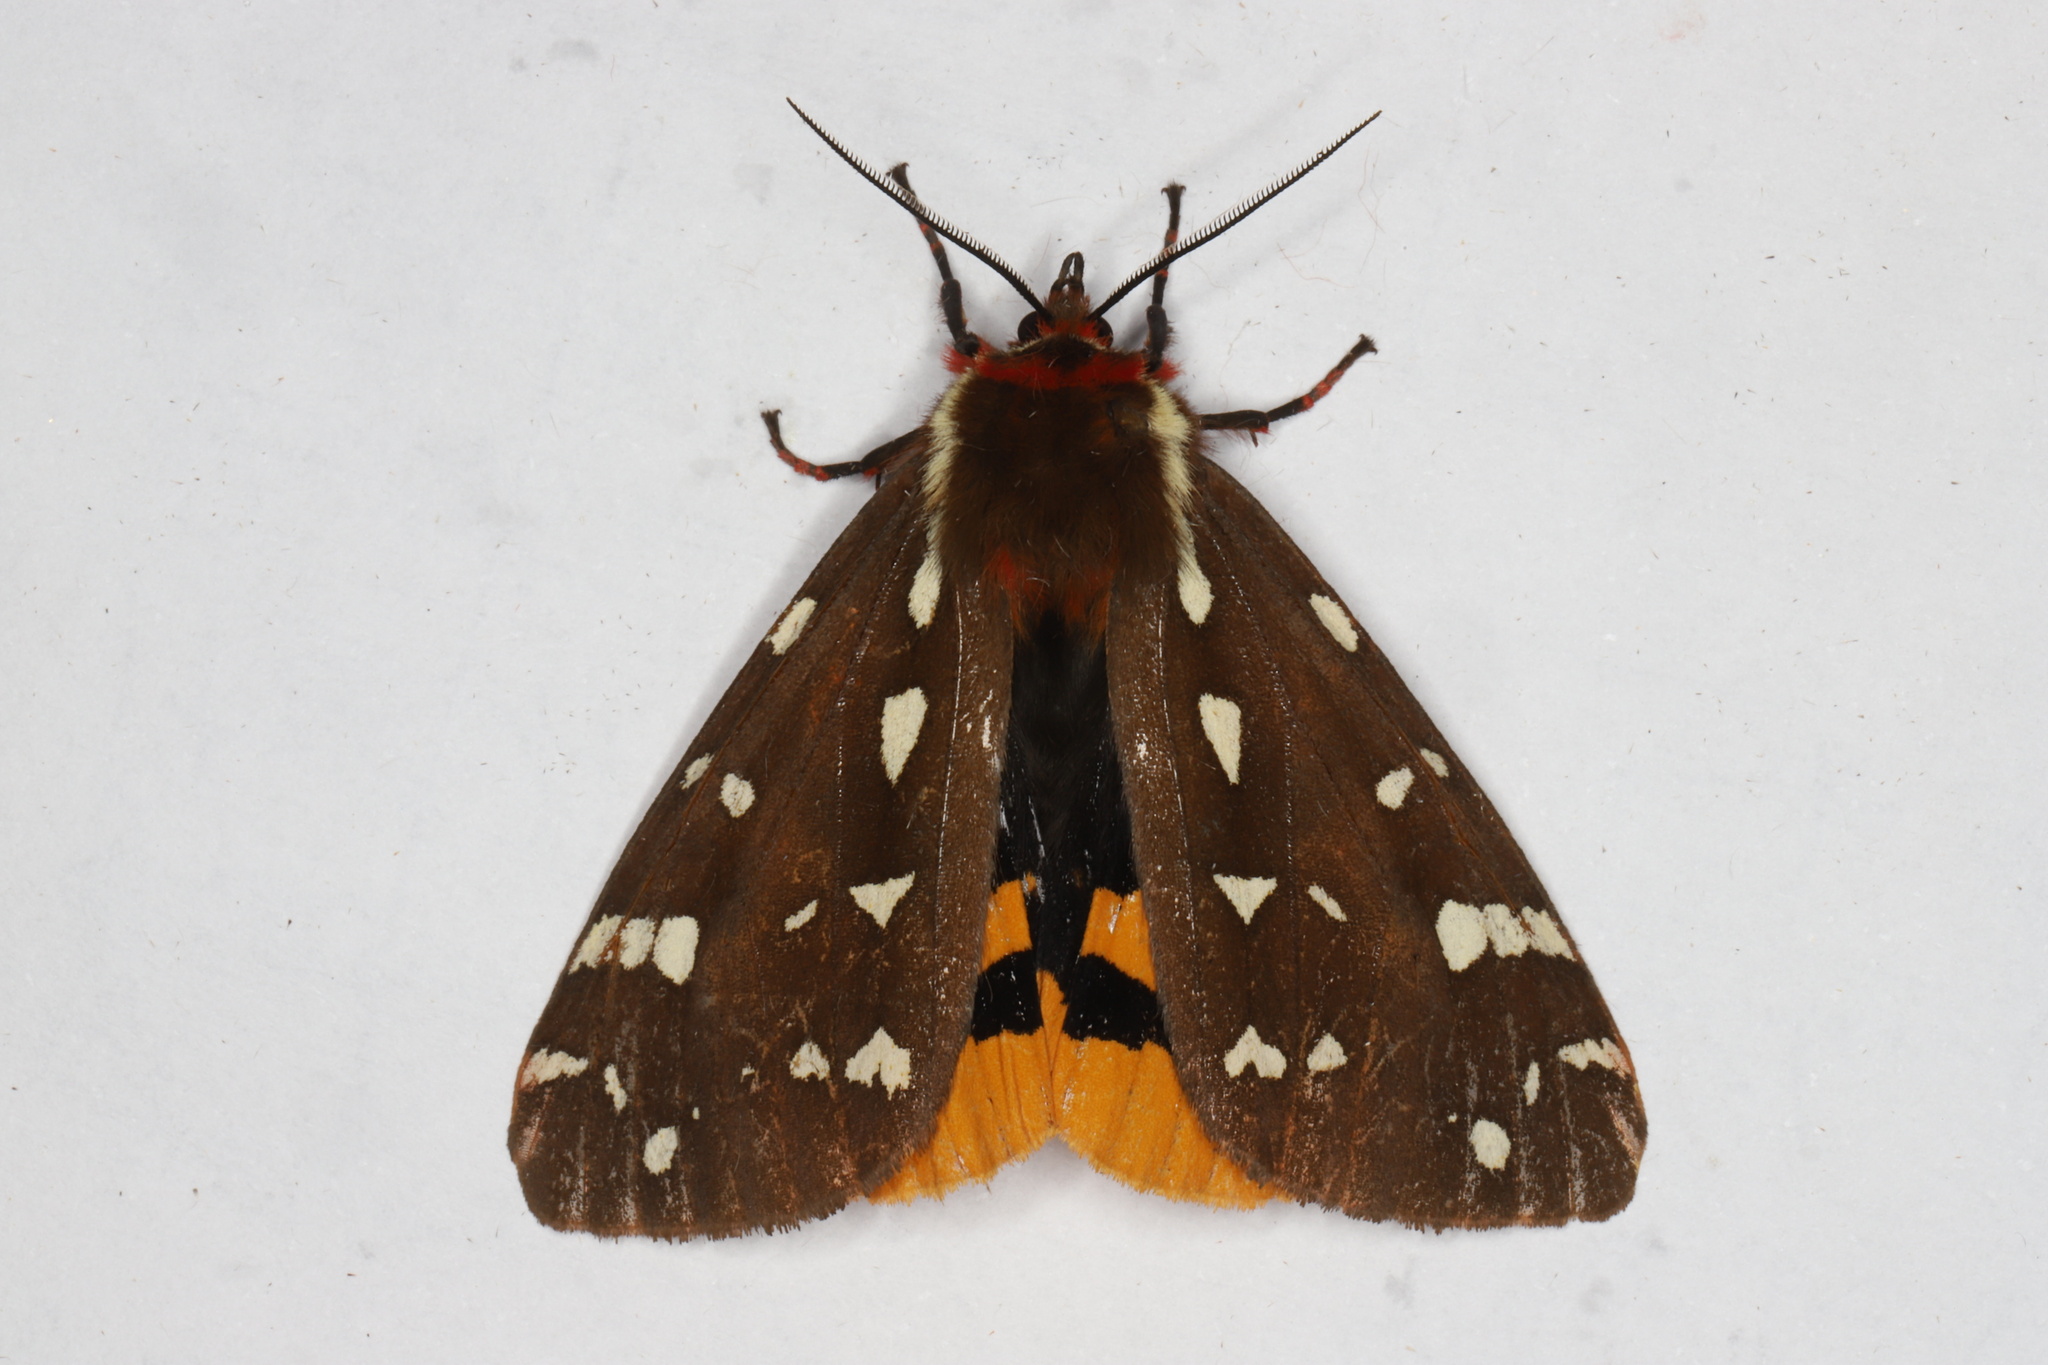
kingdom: Animalia
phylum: Arthropoda
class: Insecta
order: Lepidoptera
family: Erebidae
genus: Arctia
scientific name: Arctia parthenos
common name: St. lawrence tiger moth
